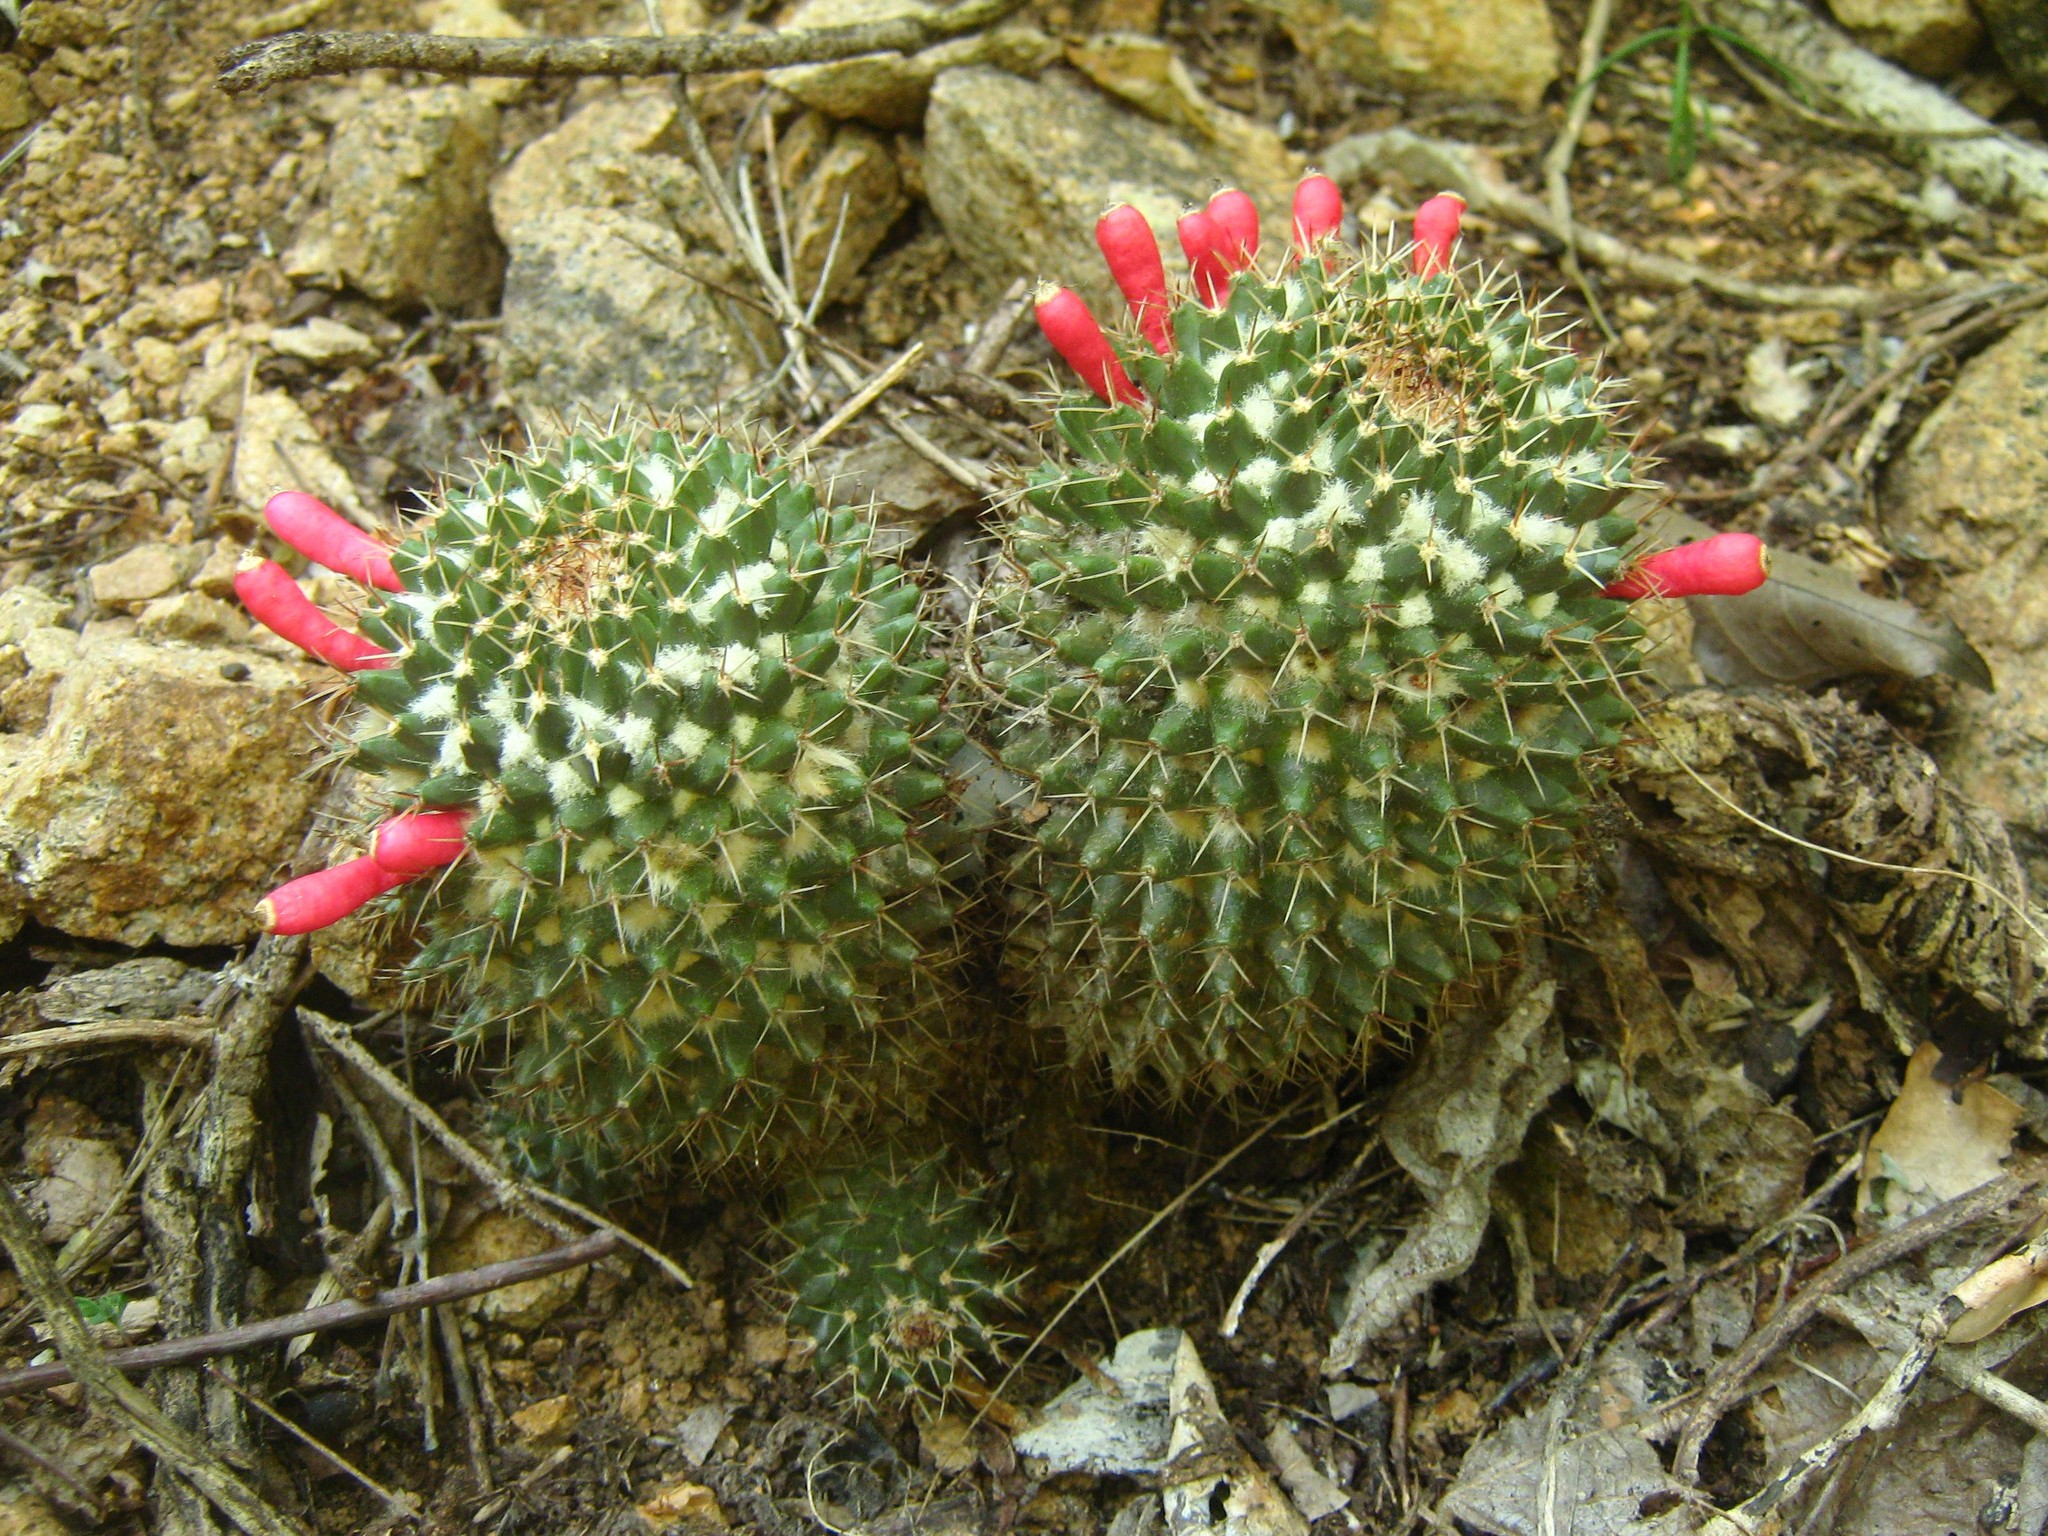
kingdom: Plantae
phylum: Tracheophyta
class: Magnoliopsida
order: Caryophyllales
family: Cactaceae
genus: Mammillaria
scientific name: Mammillaria karwinskiana
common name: Royal cross
